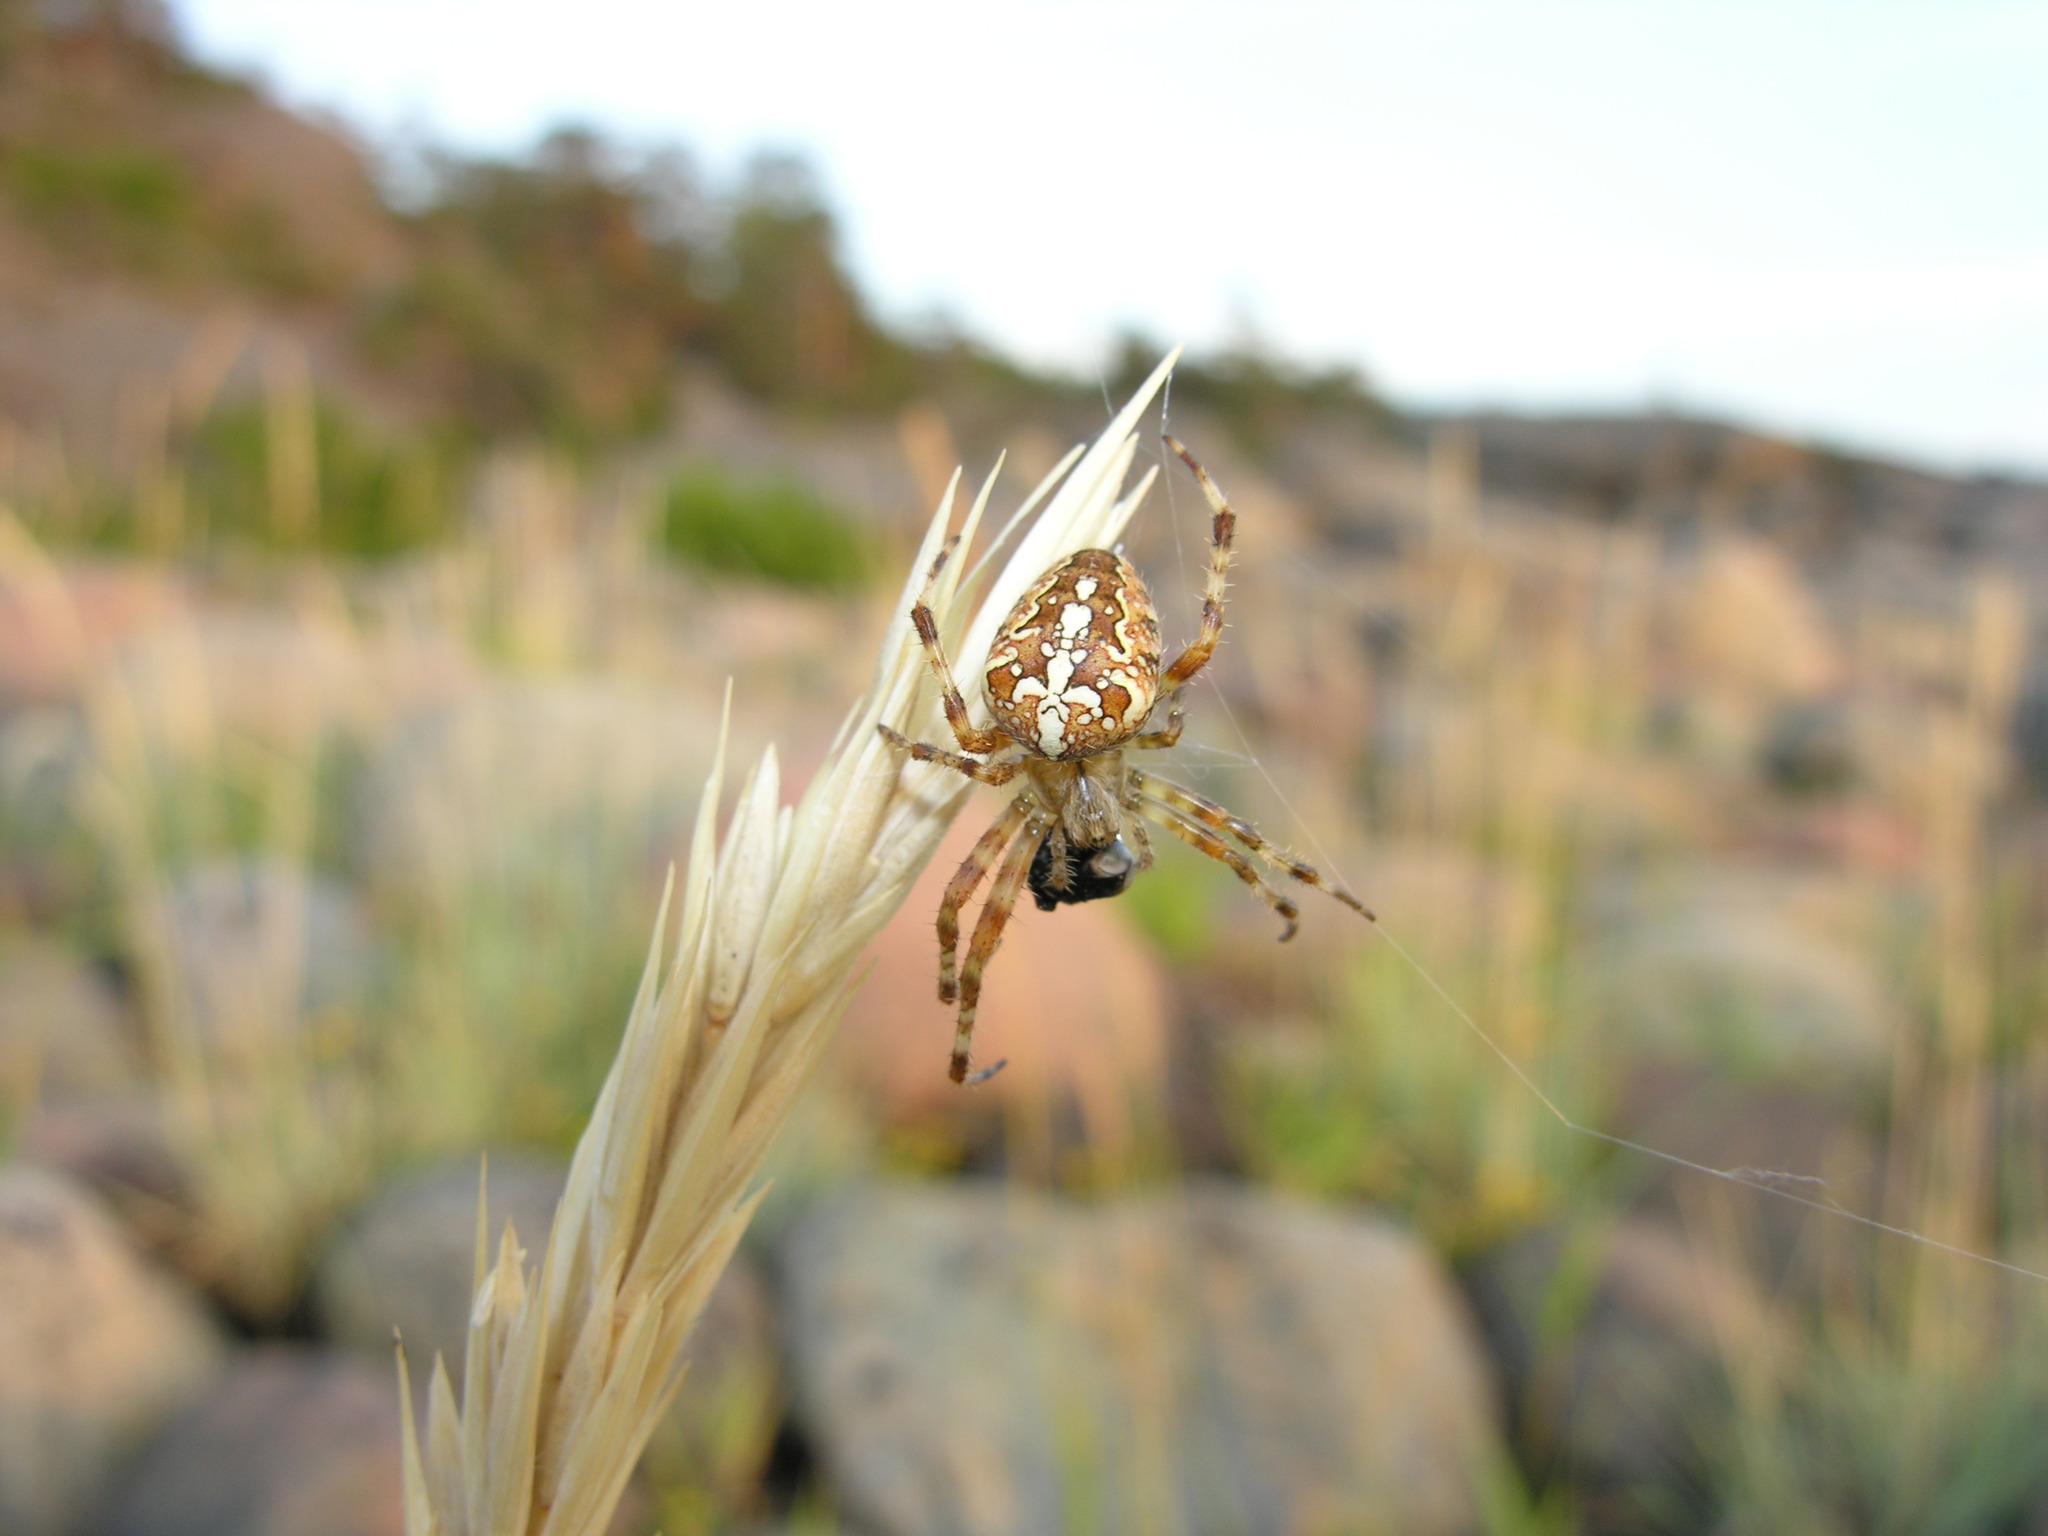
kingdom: Animalia
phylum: Arthropoda
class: Arachnida
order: Araneae
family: Araneidae
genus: Araneus
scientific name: Araneus diadematus
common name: Cross orbweaver
